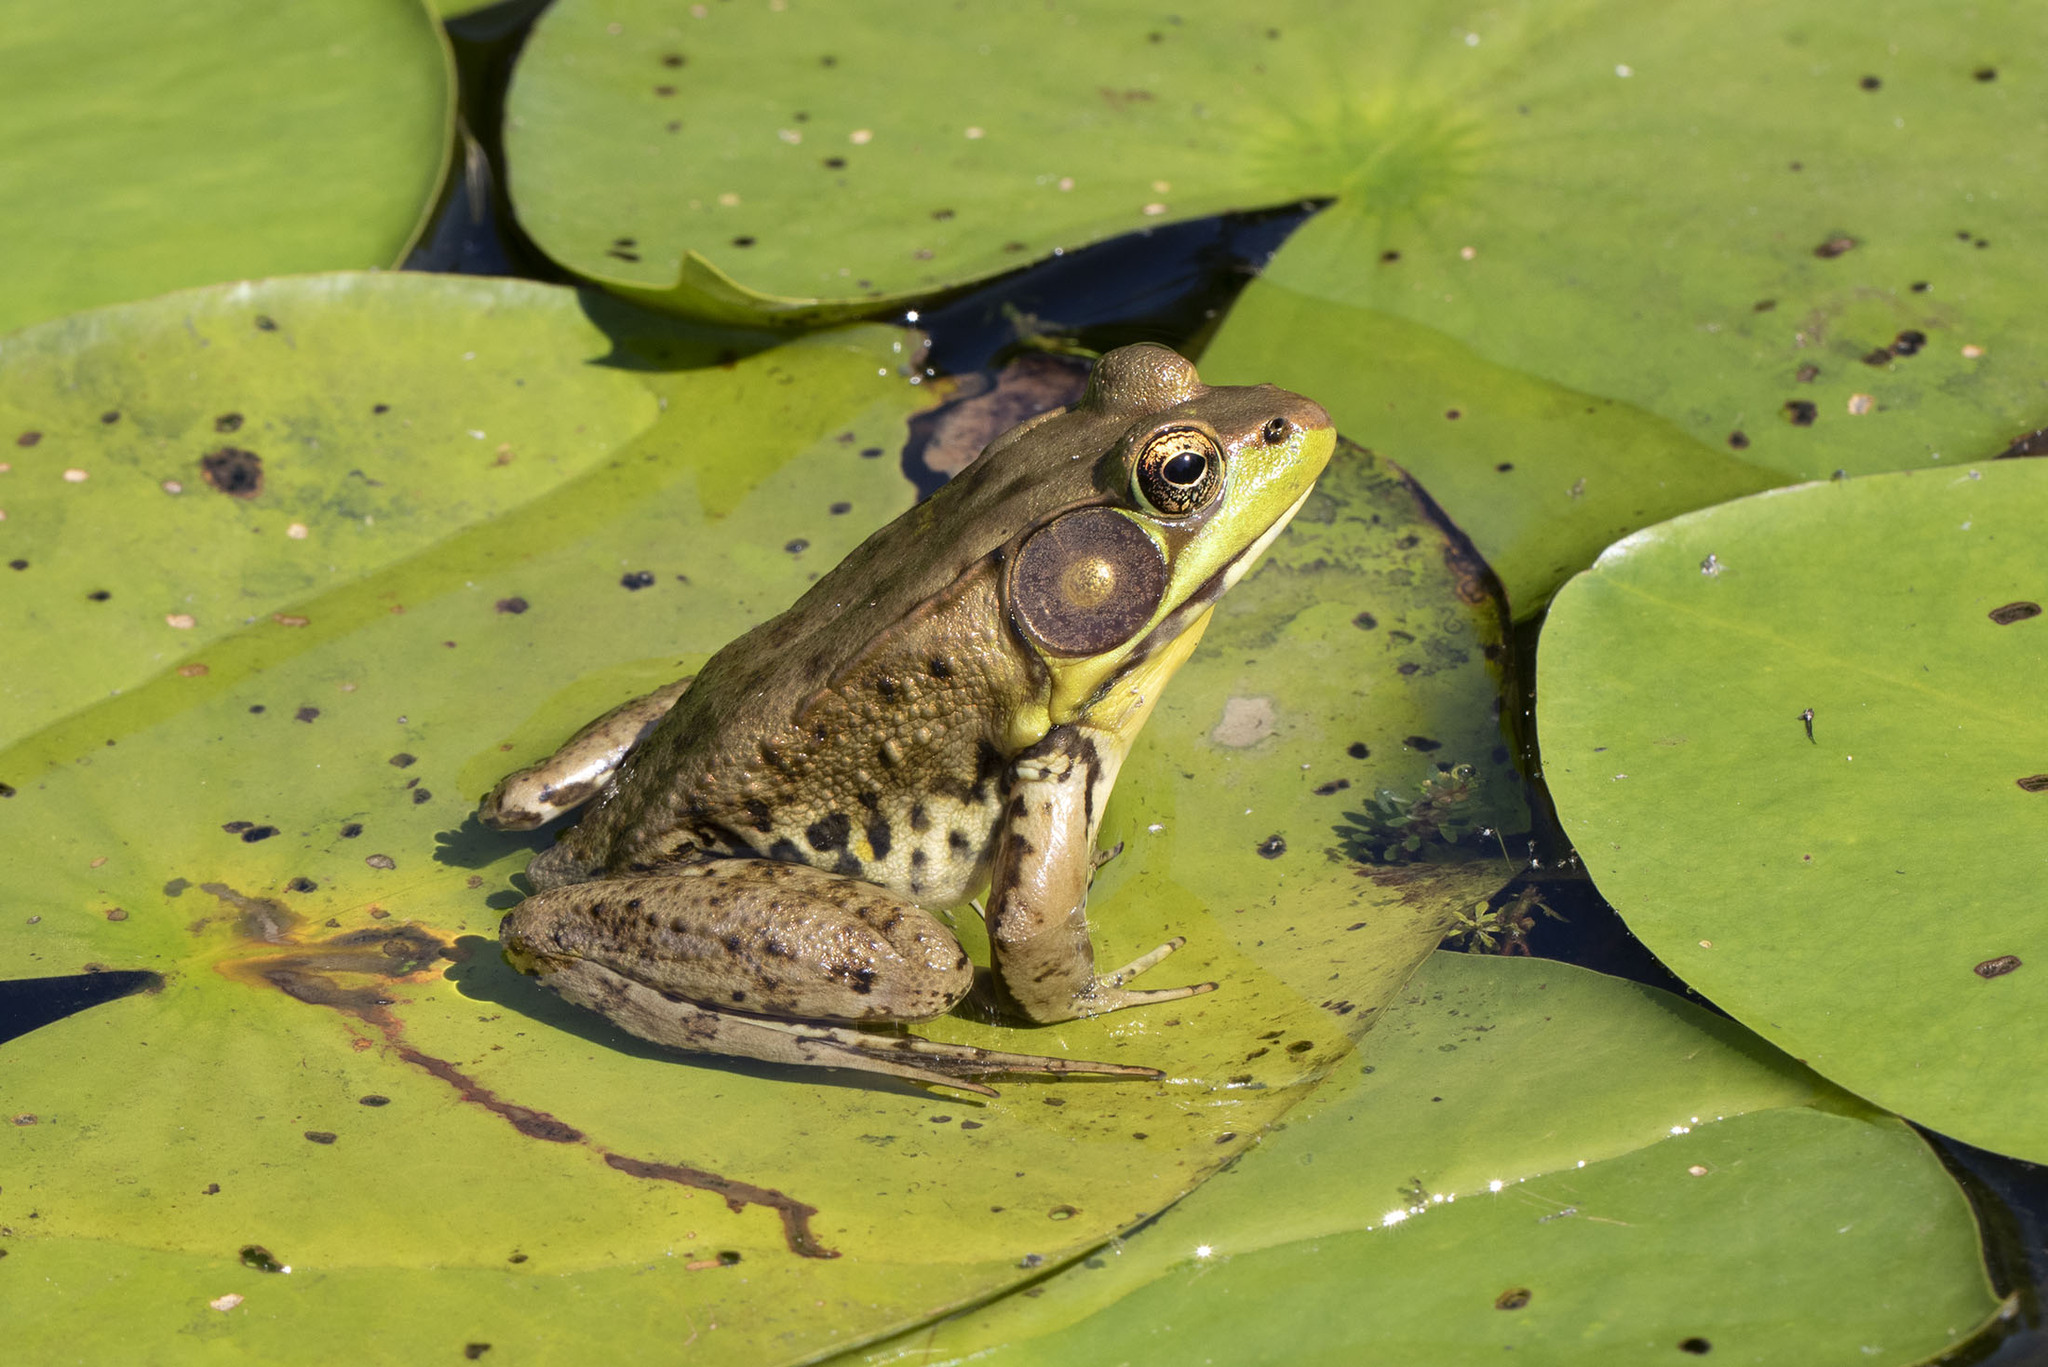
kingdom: Animalia
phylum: Chordata
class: Amphibia
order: Anura
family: Ranidae
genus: Lithobates
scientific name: Lithobates clamitans
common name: Green frog
